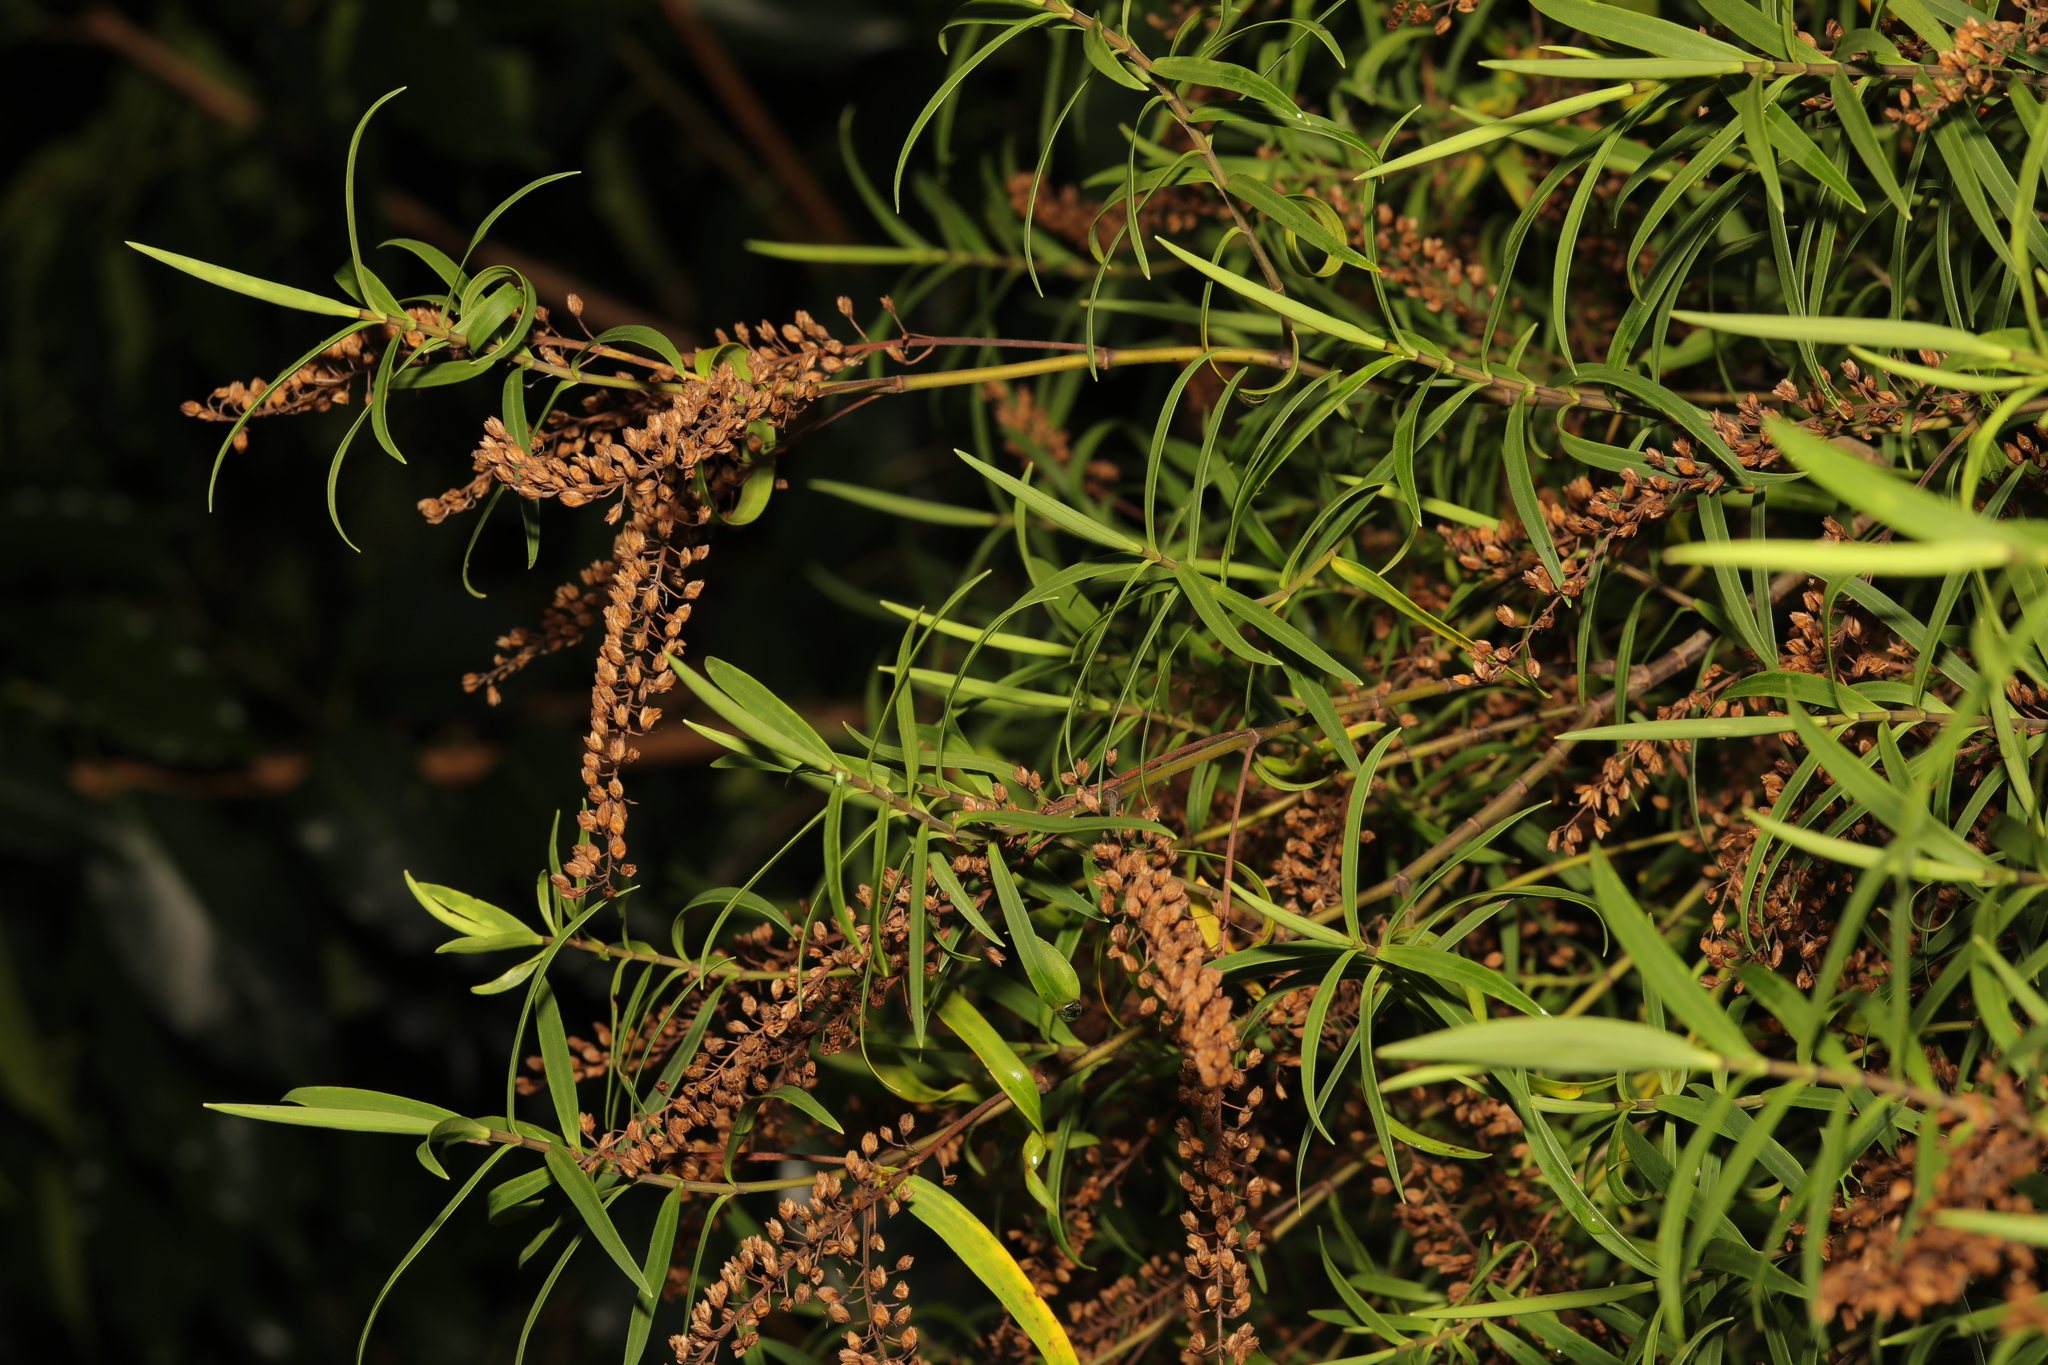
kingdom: Plantae
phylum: Tracheophyta
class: Magnoliopsida
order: Lamiales
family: Plantaginaceae
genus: Veronica
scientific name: Veronica salicifolia
